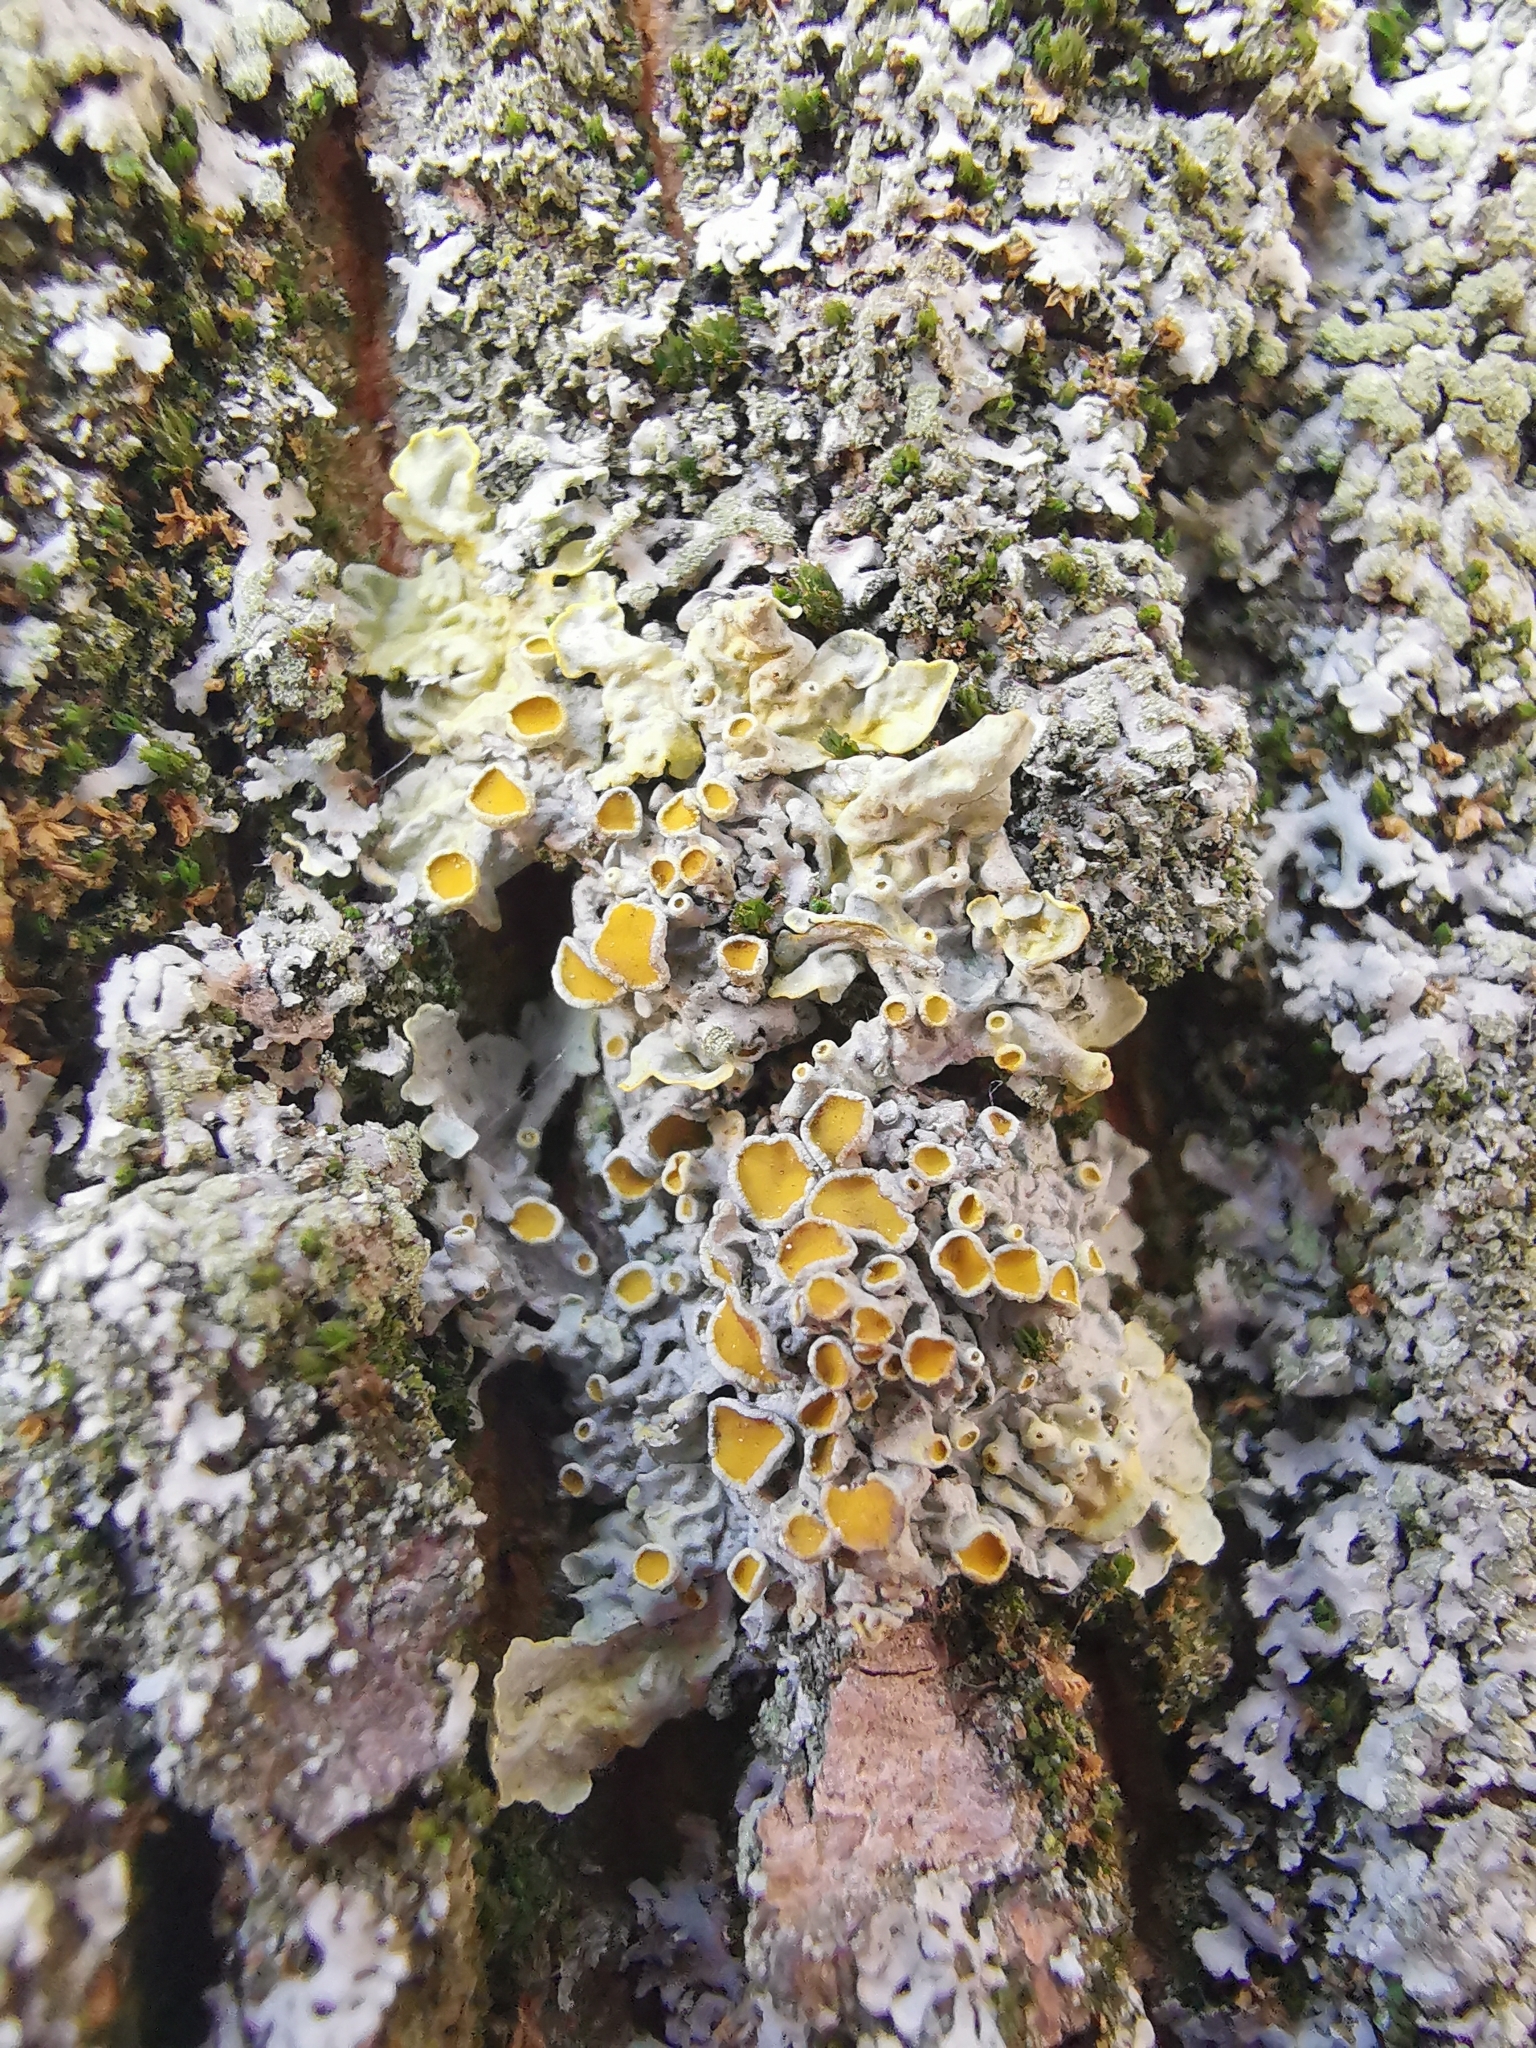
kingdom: Fungi
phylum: Ascomycota
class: Lecanoromycetes
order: Teloschistales
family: Teloschistaceae
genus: Xanthoria
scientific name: Xanthoria parietina
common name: Common orange lichen
